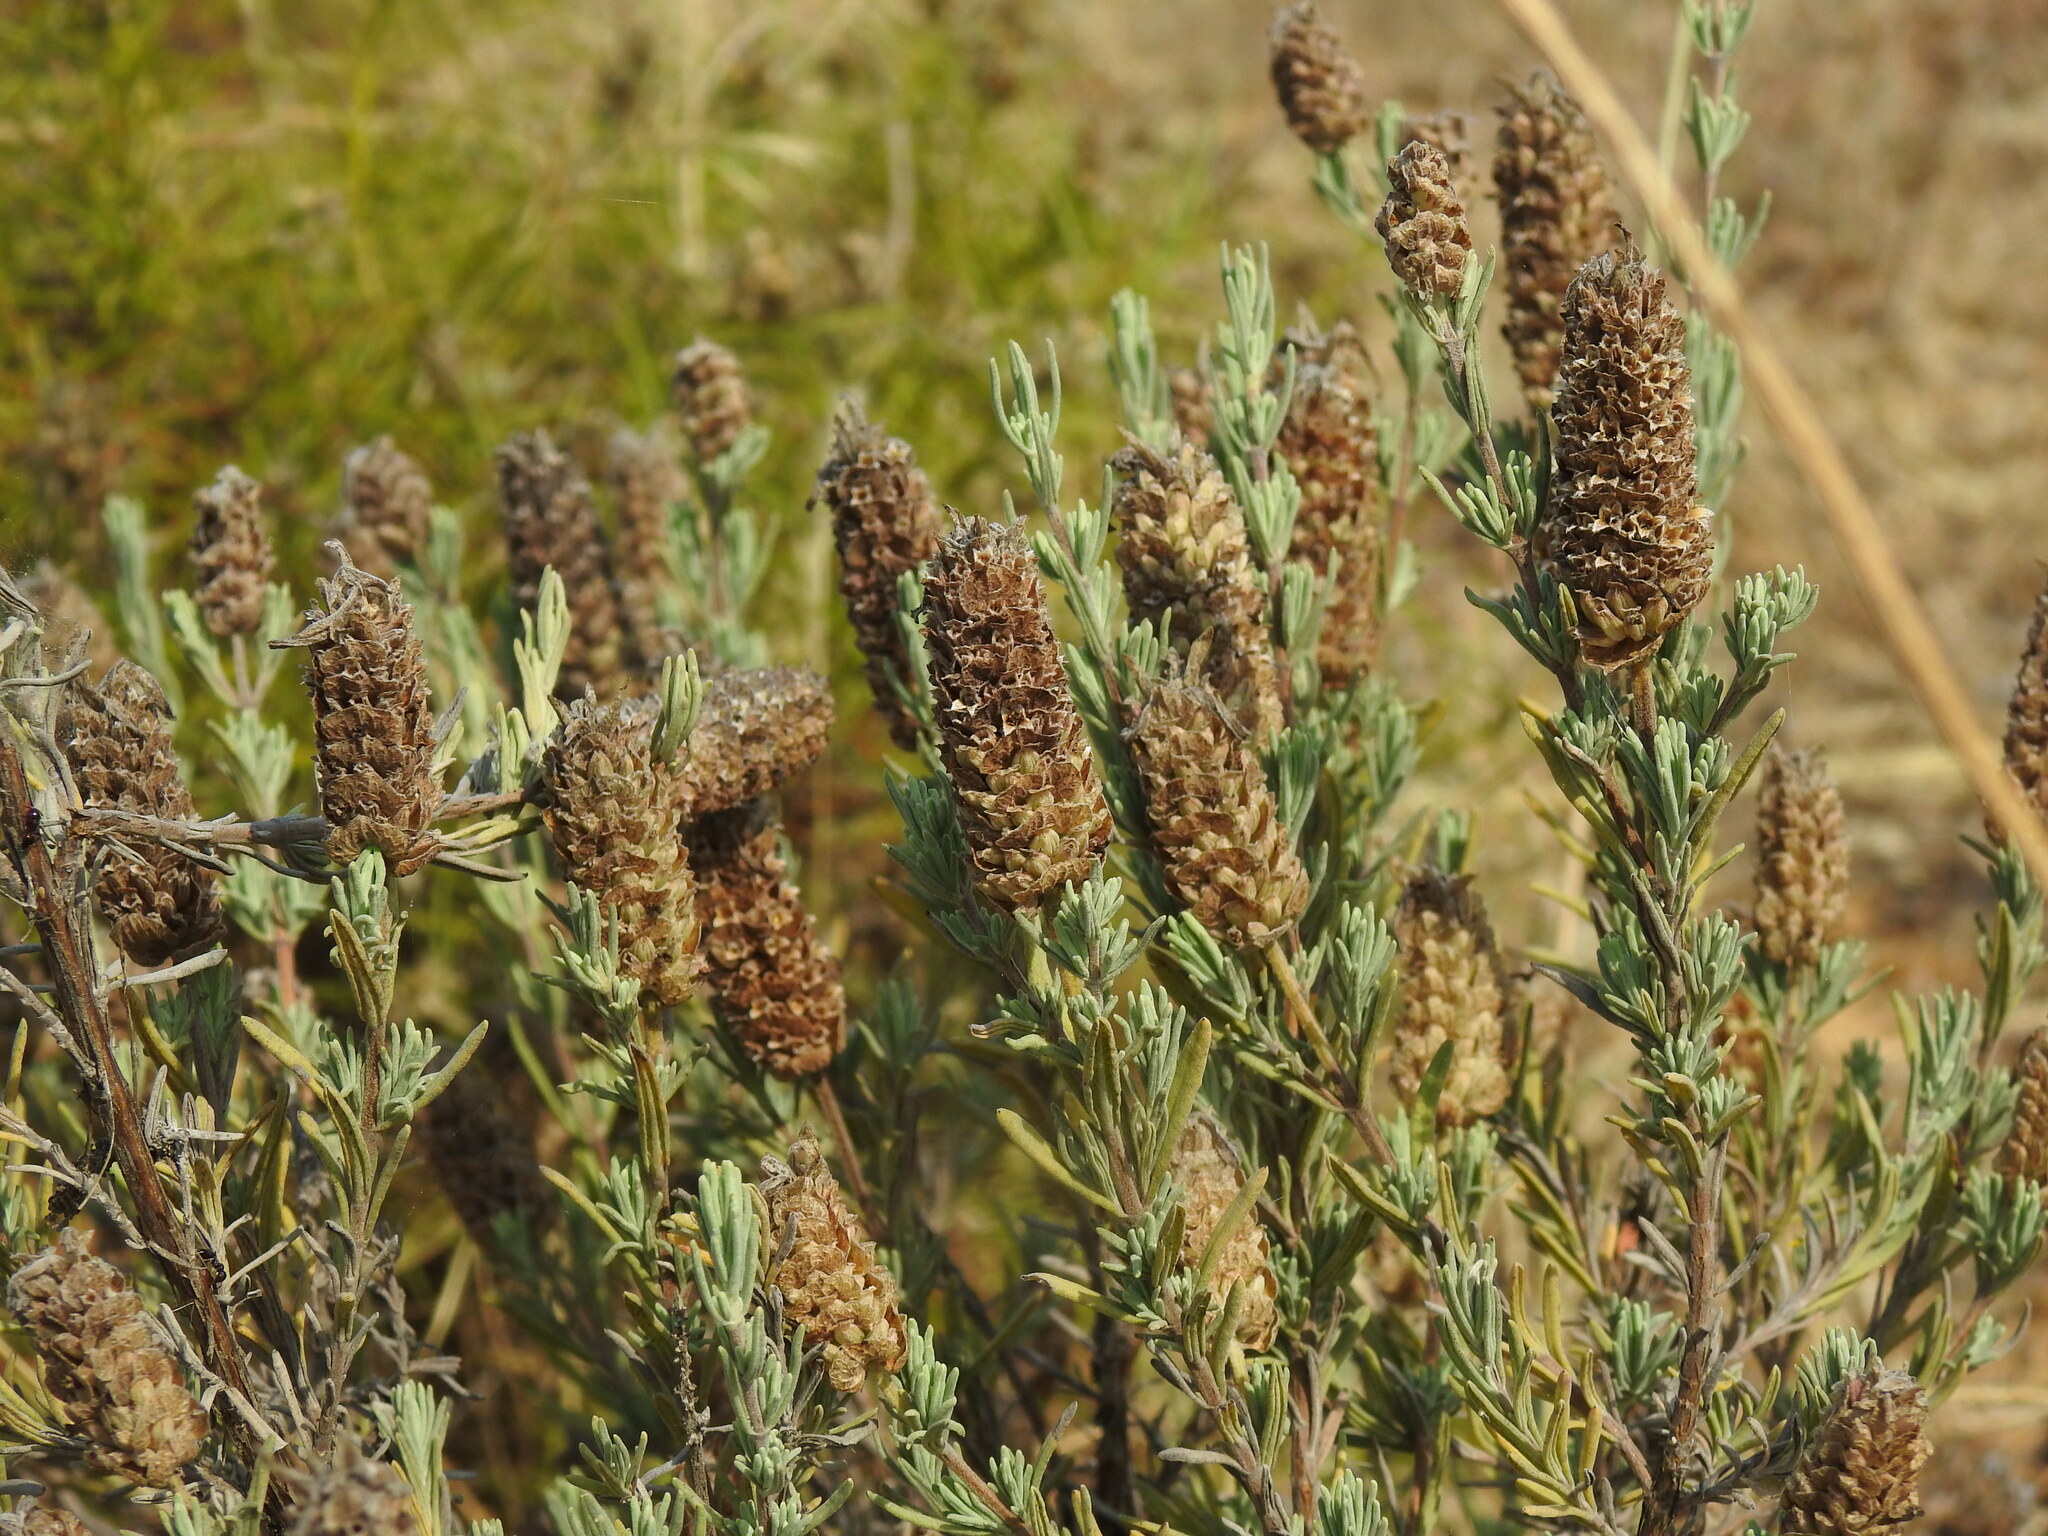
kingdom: Plantae
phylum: Tracheophyta
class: Magnoliopsida
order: Lamiales
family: Lamiaceae
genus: Lavandula
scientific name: Lavandula stoechas
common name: French lavender
